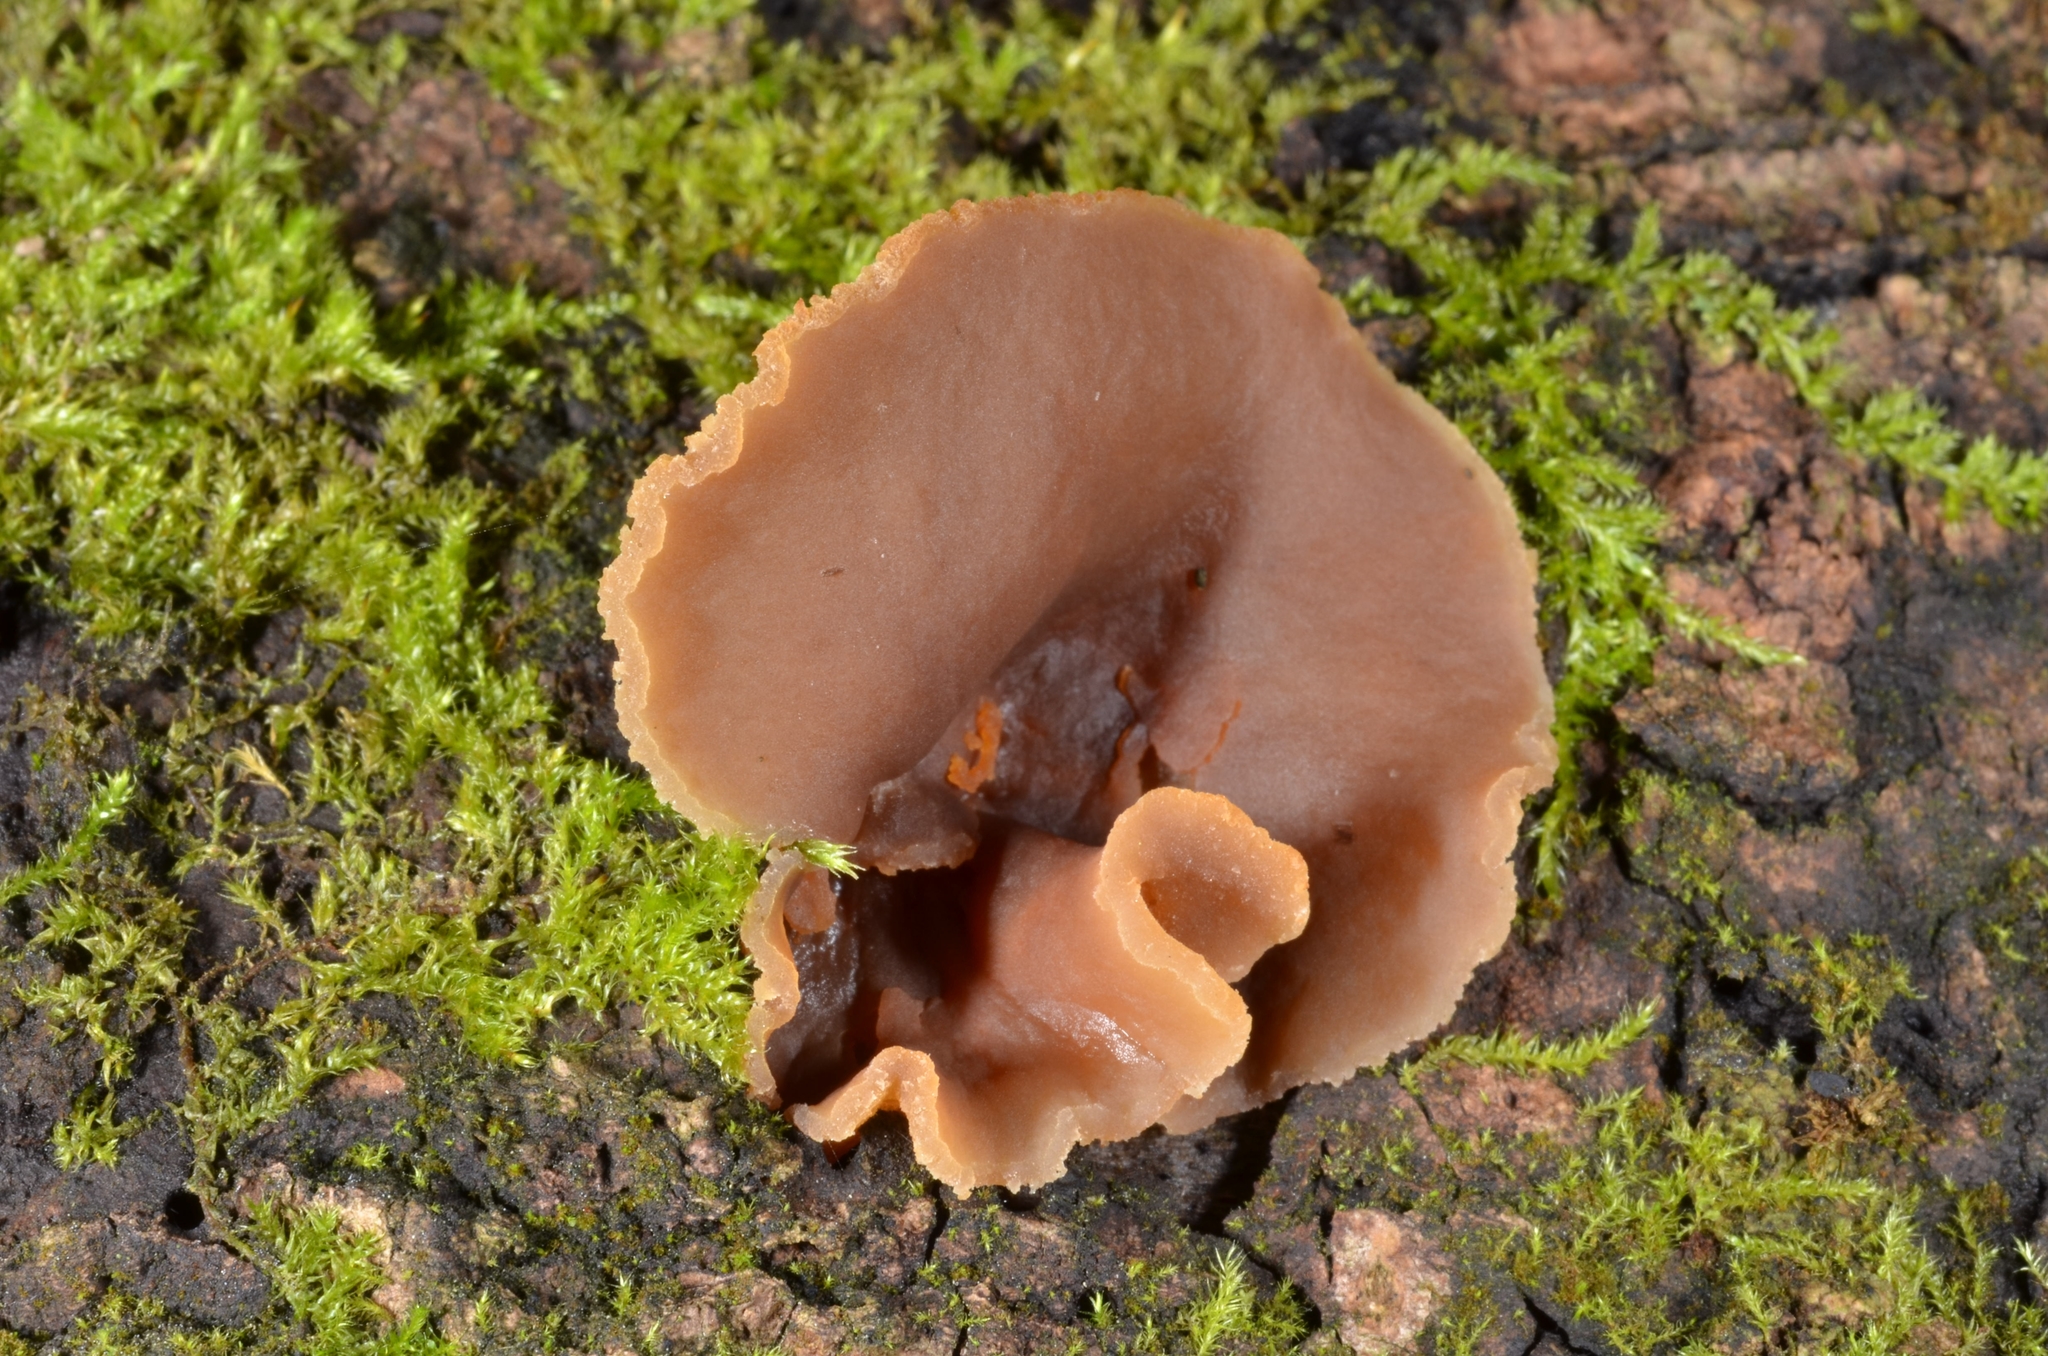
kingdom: Fungi
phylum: Ascomycota
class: Pezizomycetes
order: Pezizales
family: Pezizaceae
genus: Peziza
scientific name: Peziza varia
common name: Layered cup
